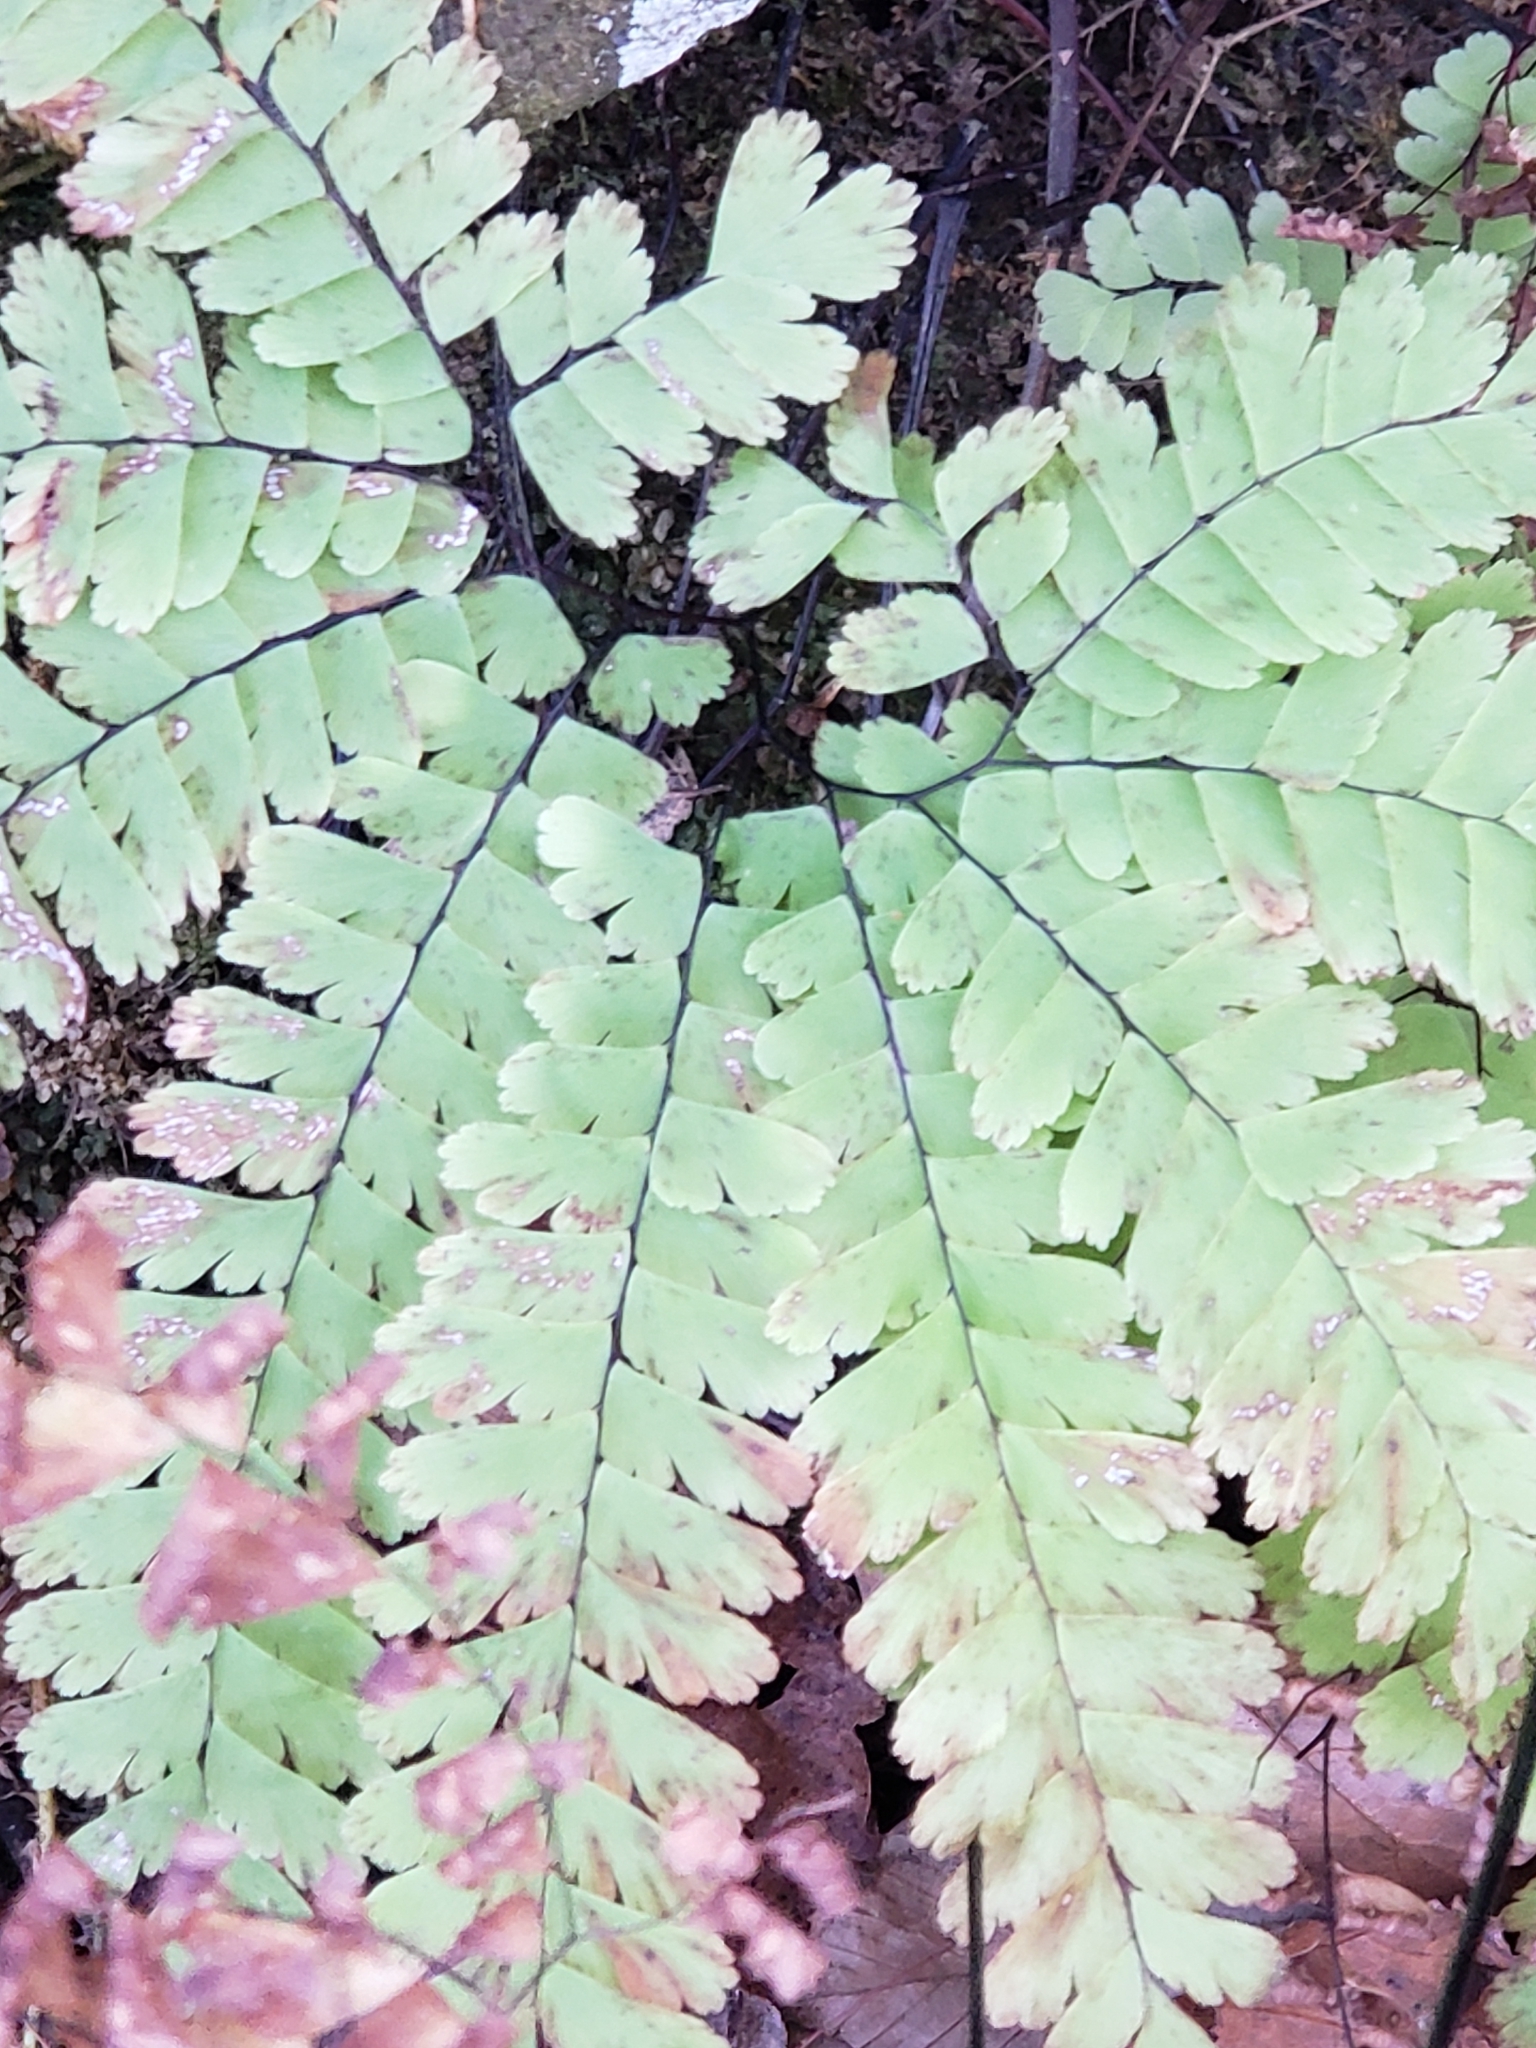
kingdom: Plantae
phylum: Tracheophyta
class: Polypodiopsida
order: Polypodiales
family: Pteridaceae
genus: Adiantum
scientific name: Adiantum pedatum
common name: Five-finger fern
